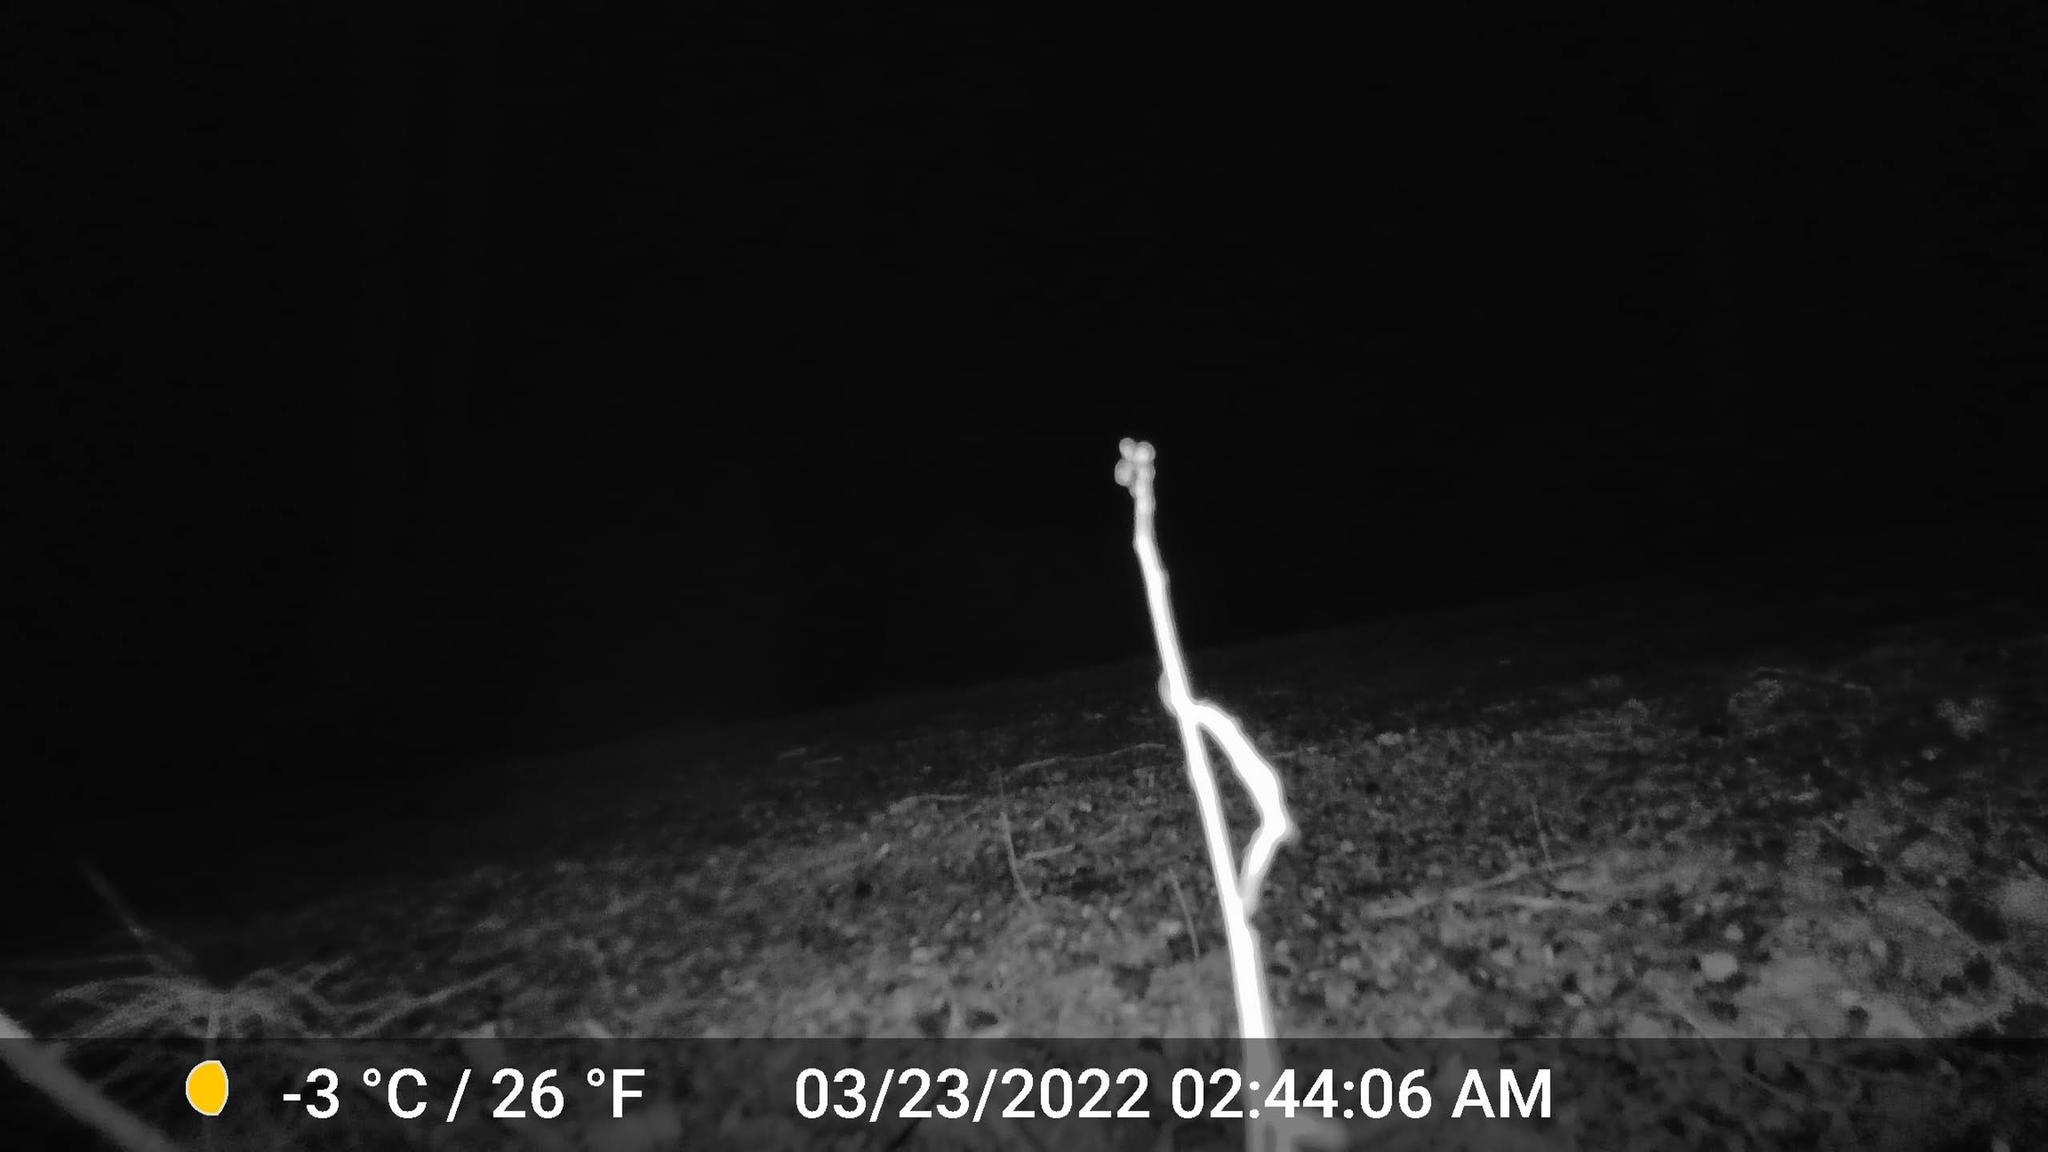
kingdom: Animalia
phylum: Chordata
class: Mammalia
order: Carnivora
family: Canidae
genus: Canis
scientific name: Canis latrans
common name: Coyote
